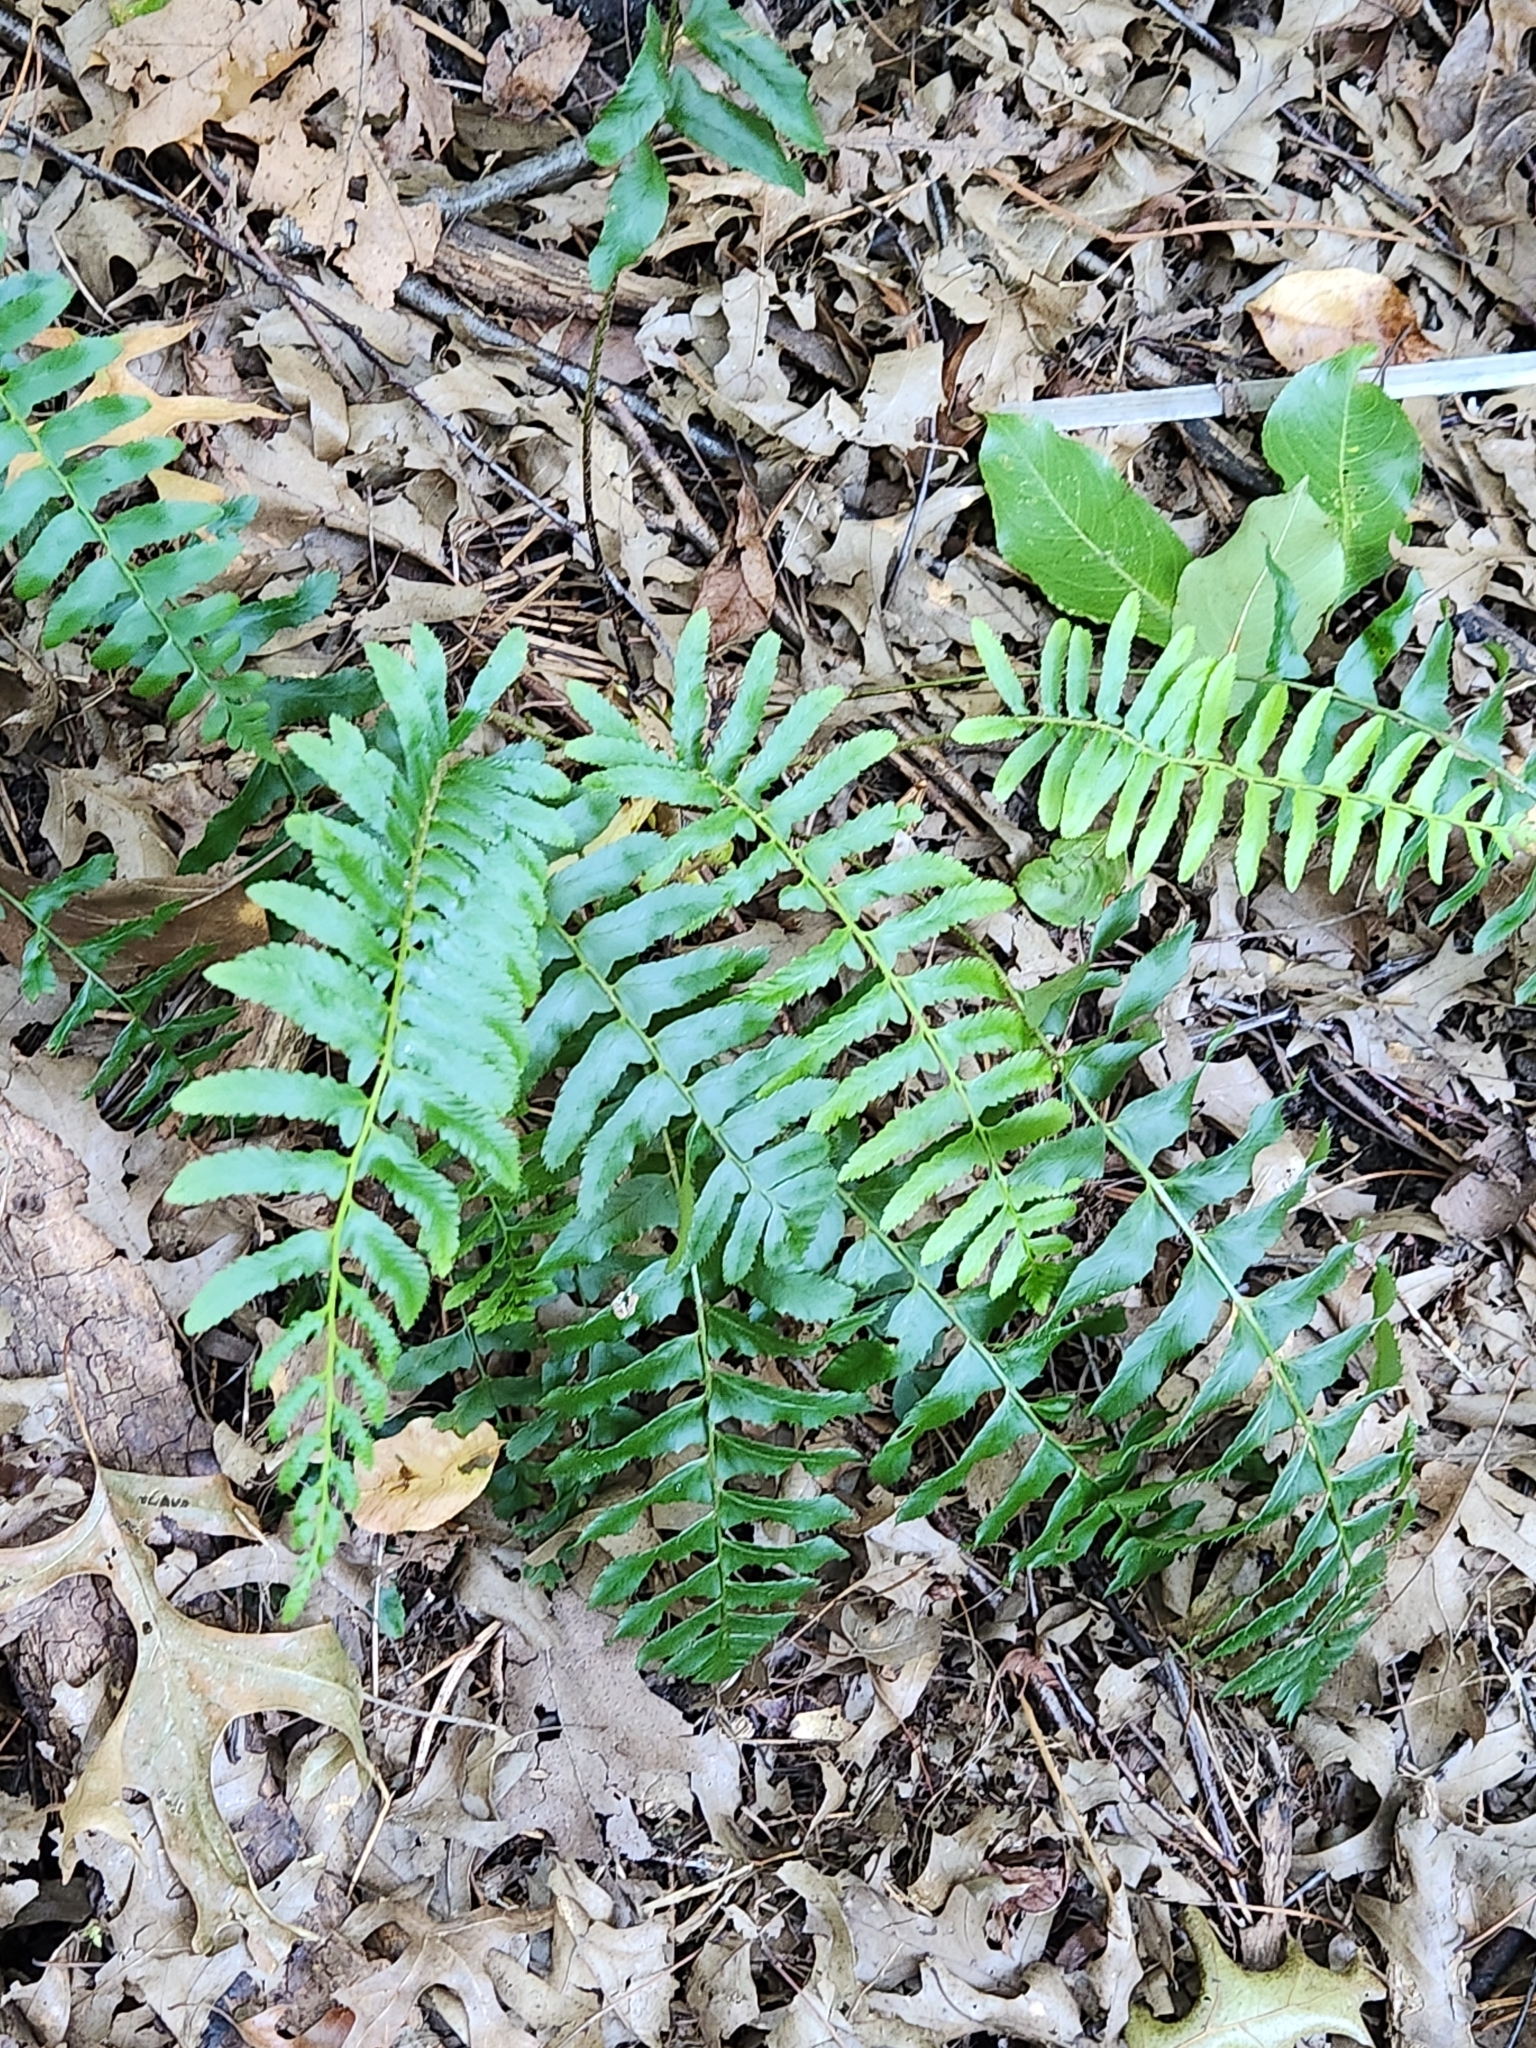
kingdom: Plantae
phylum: Tracheophyta
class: Polypodiopsida
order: Polypodiales
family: Dryopteridaceae
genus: Polystichum
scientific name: Polystichum acrostichoides
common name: Christmas fern
